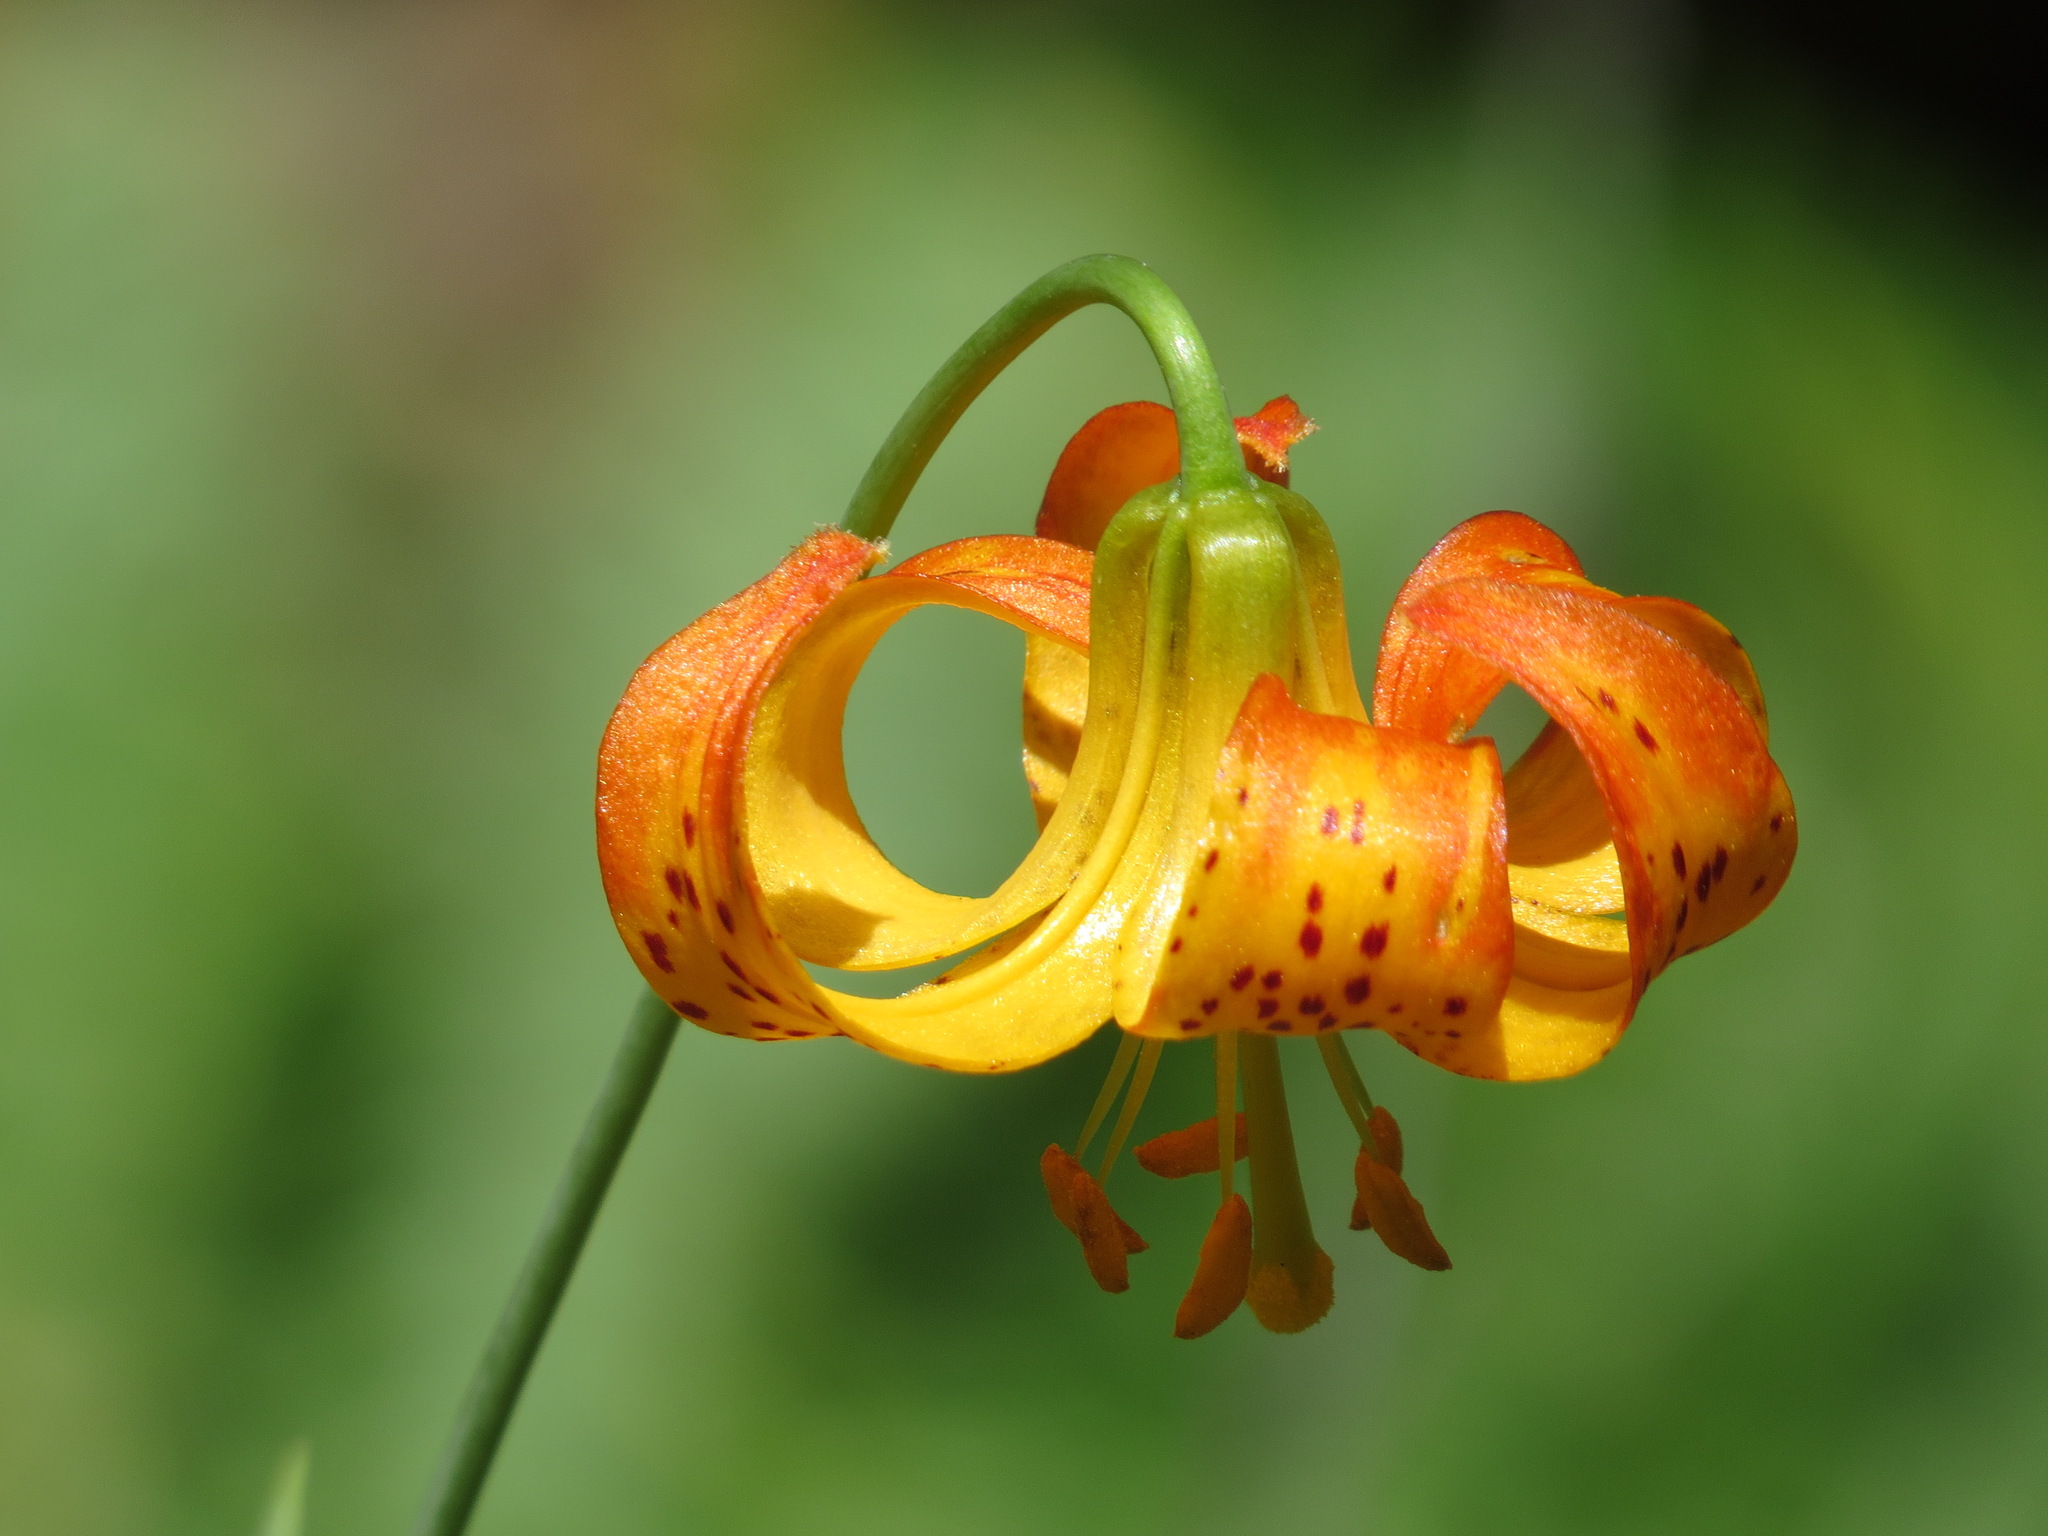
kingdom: Plantae
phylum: Tracheophyta
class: Liliopsida
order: Liliales
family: Liliaceae
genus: Lilium
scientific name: Lilium pardalinum
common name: Panther lily
